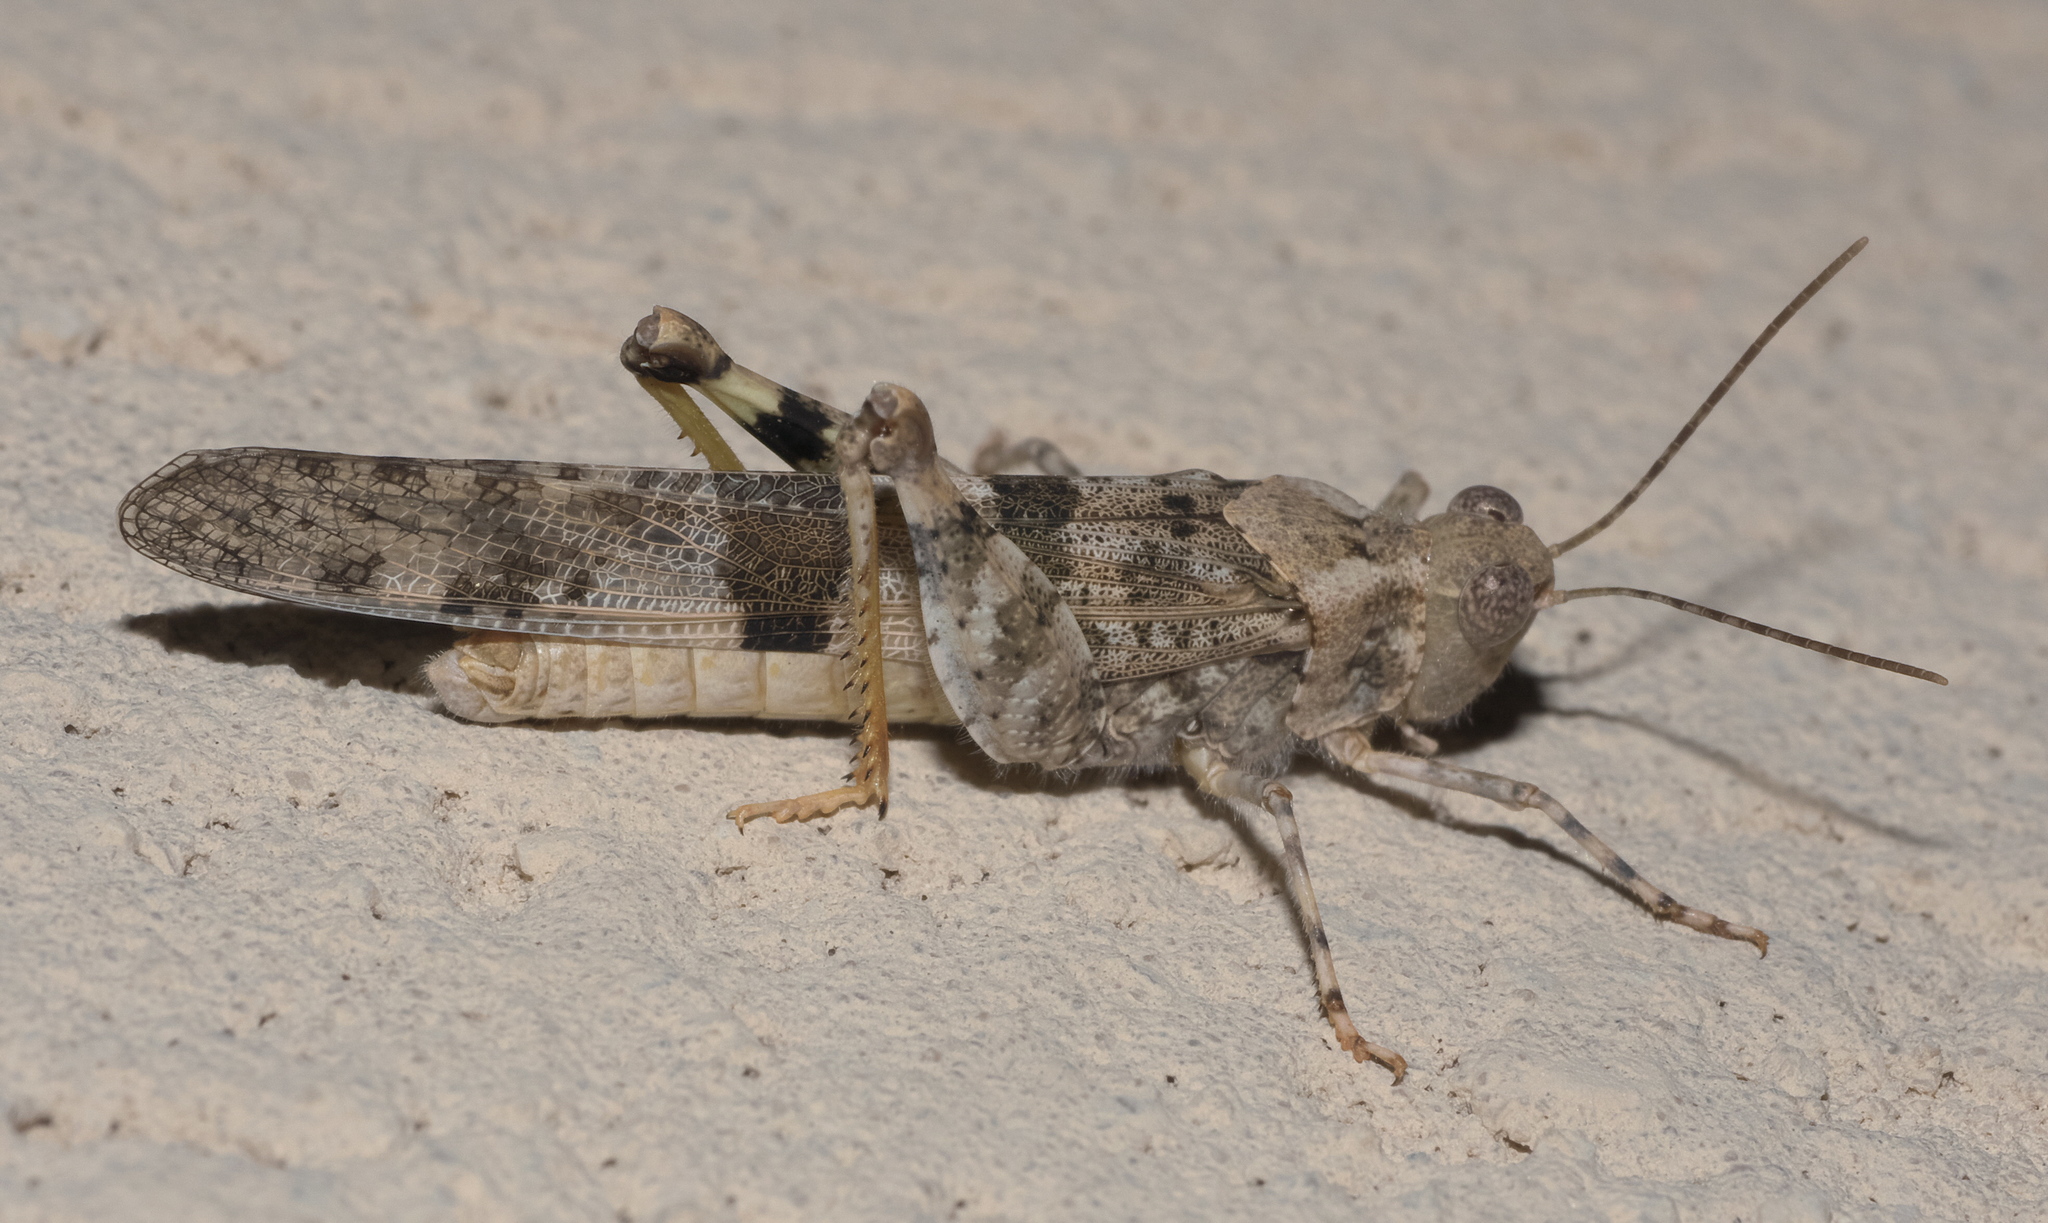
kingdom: Animalia
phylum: Arthropoda
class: Insecta
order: Orthoptera
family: Acrididae
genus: Trimerotropis
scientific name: Trimerotropis pallidipennis
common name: Pallid-winged grasshopper
